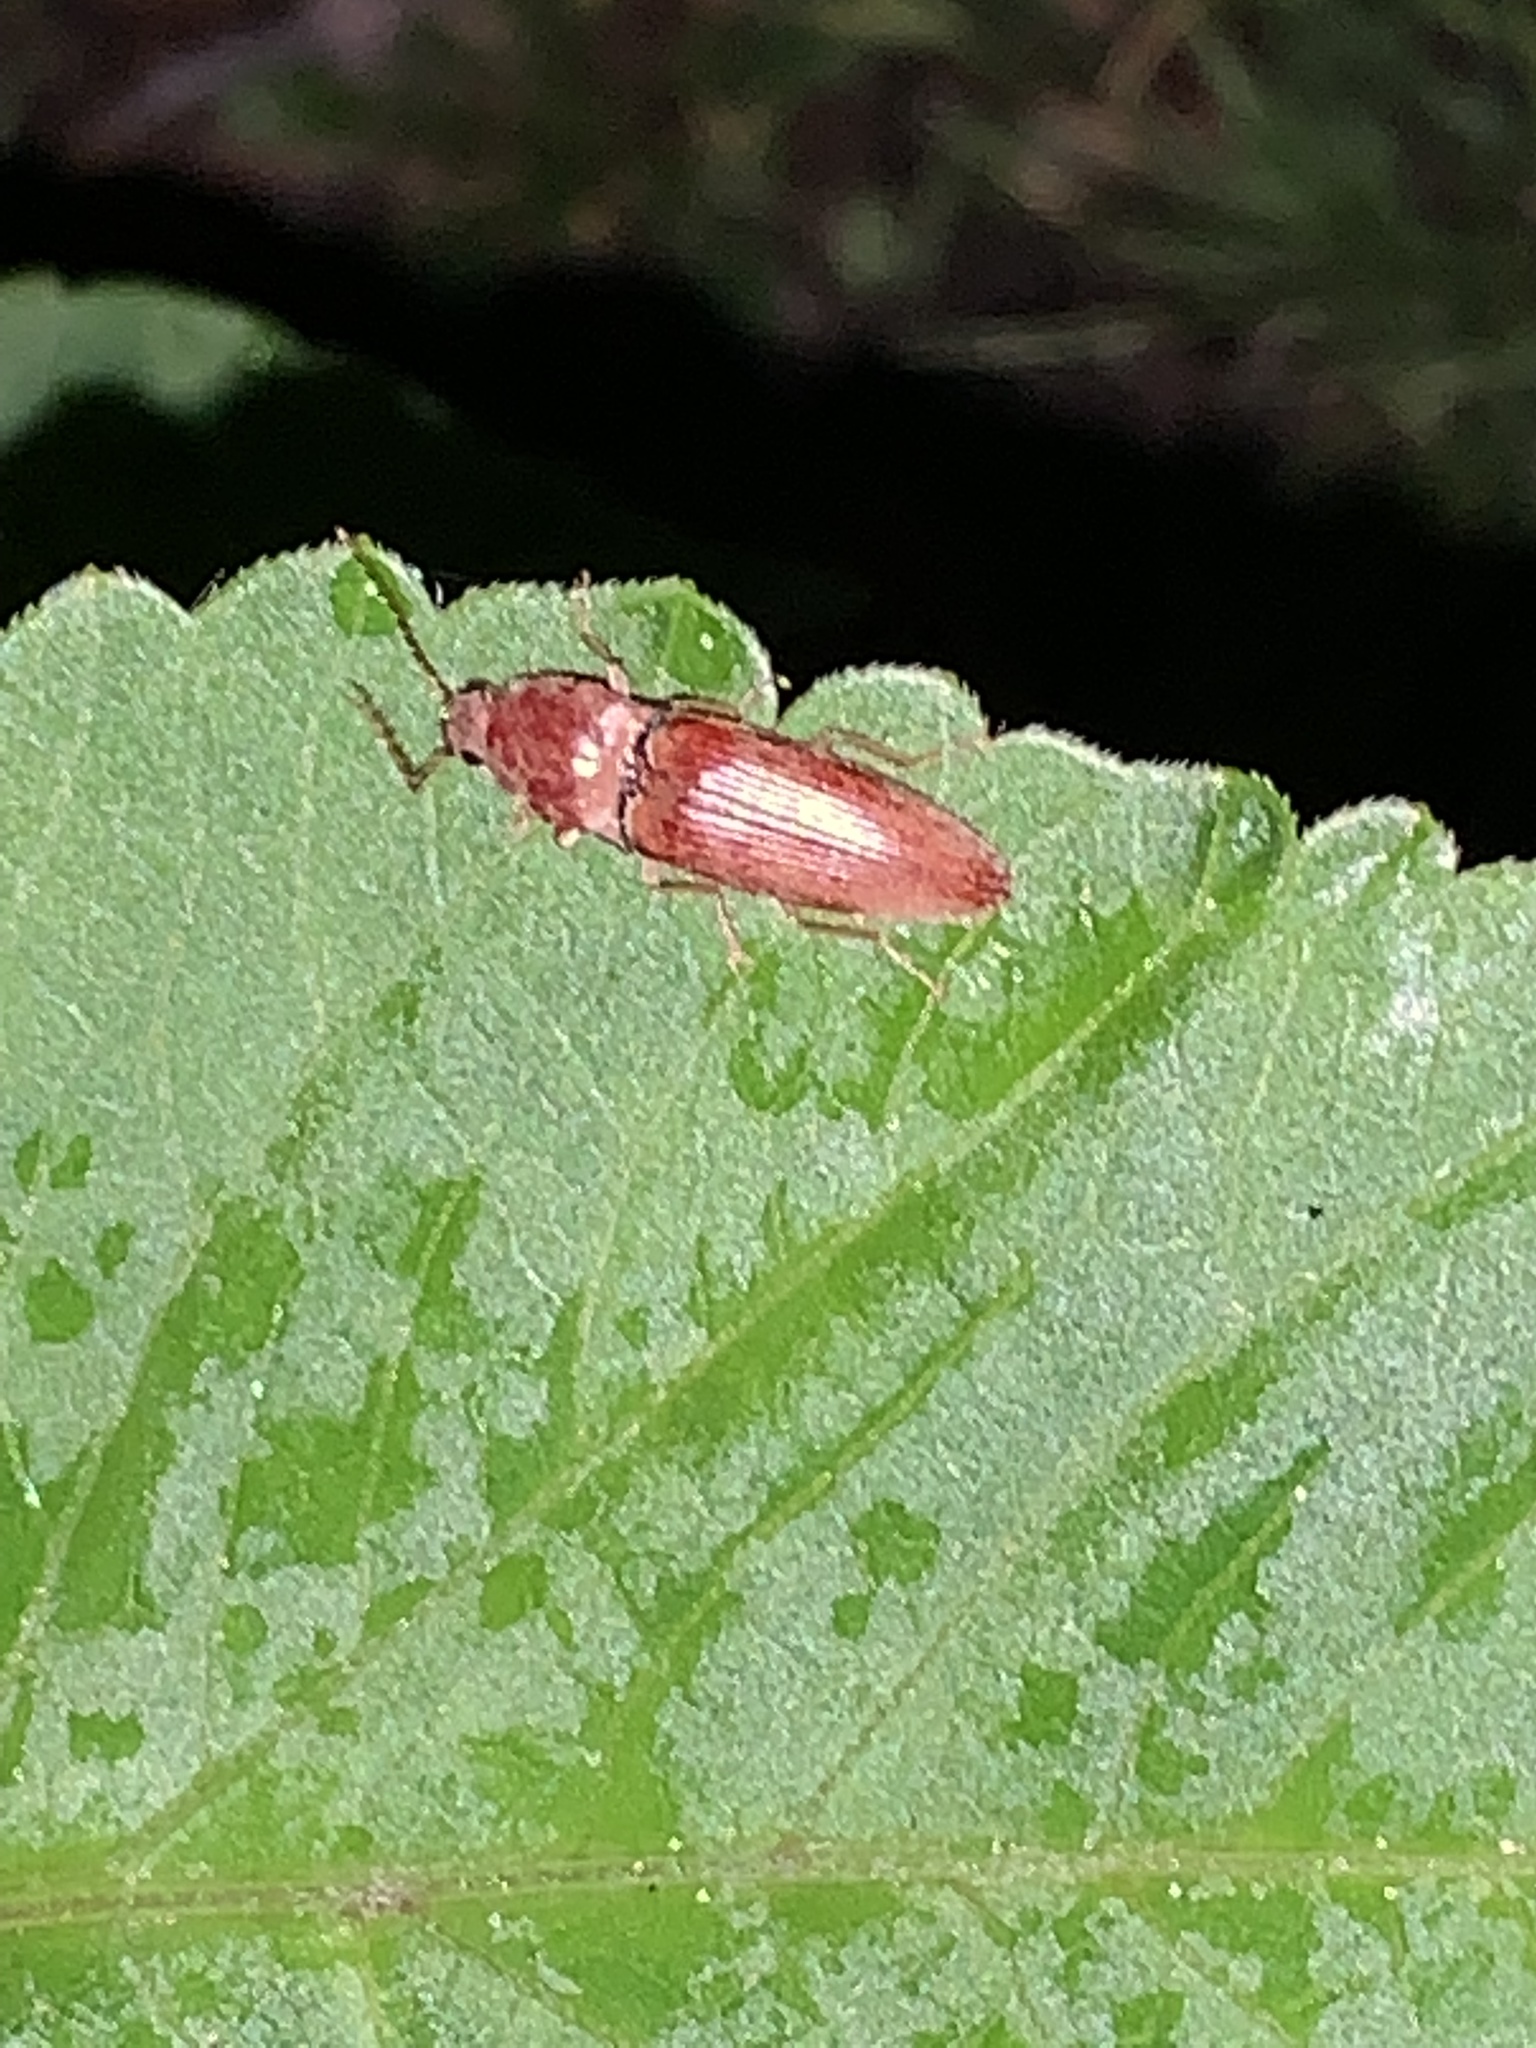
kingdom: Animalia
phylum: Arthropoda
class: Insecta
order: Coleoptera
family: Elateridae
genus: Monocrepidius
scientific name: Monocrepidius lividus
